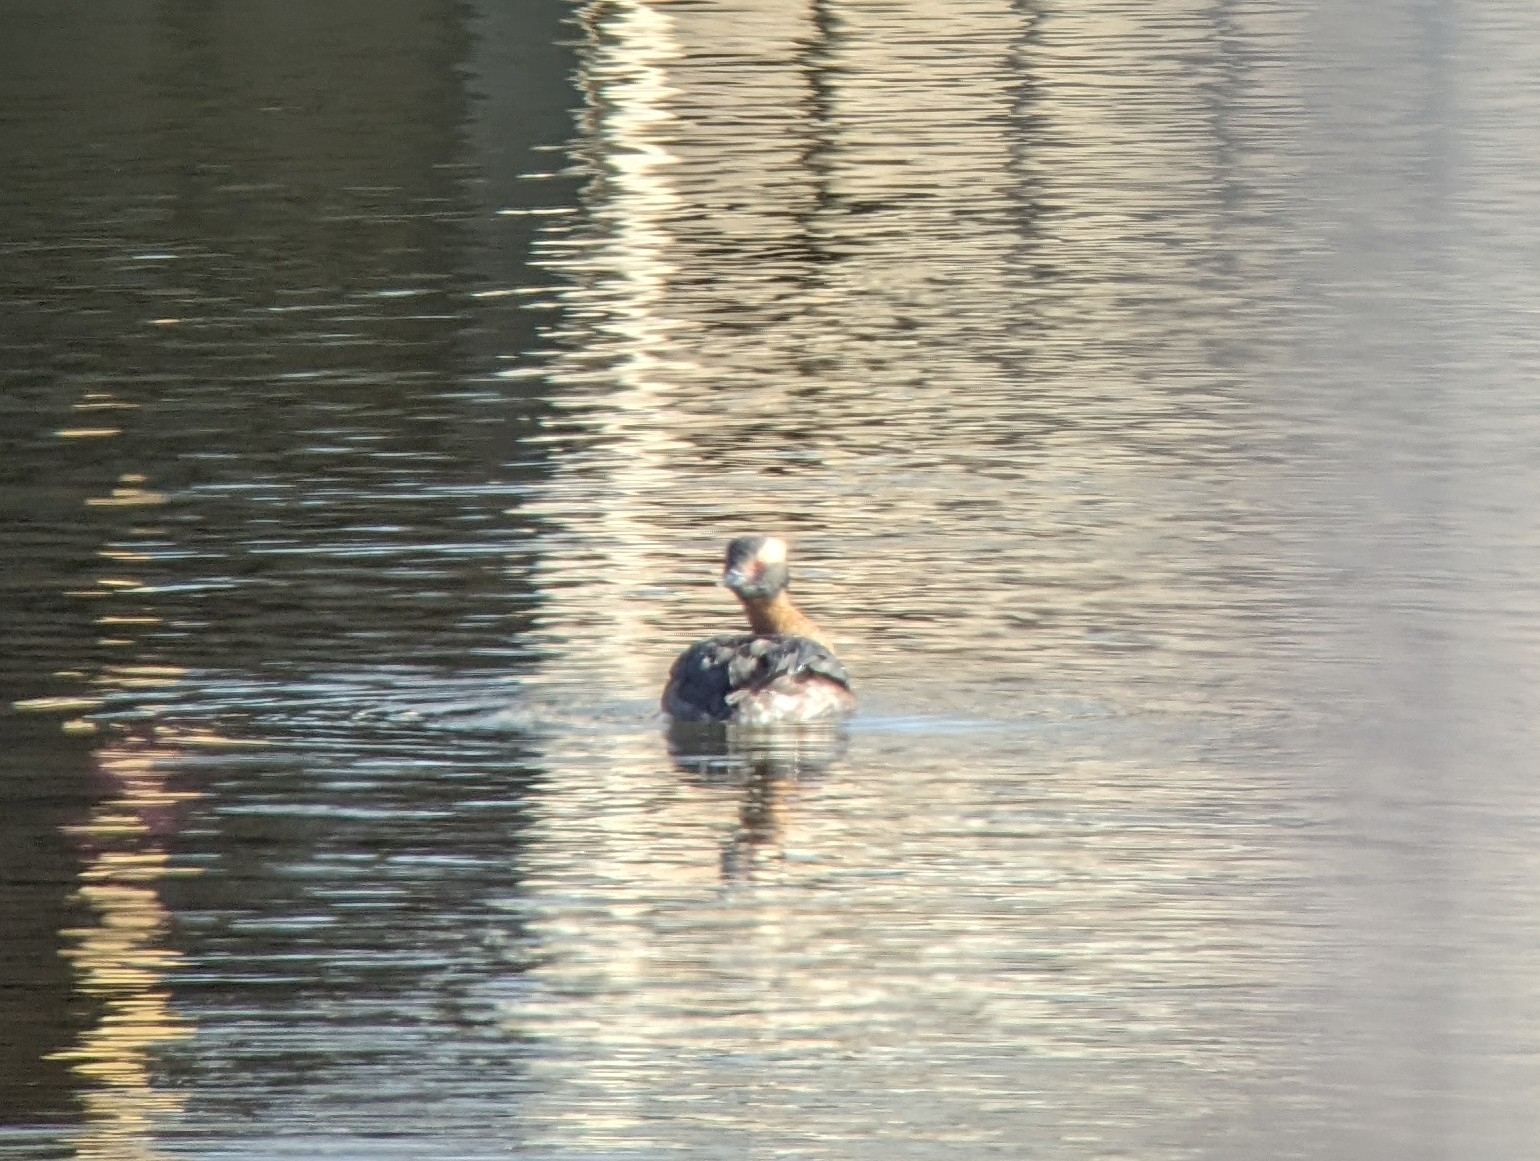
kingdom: Animalia
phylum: Chordata
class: Aves
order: Podicipediformes
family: Podicipedidae
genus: Podiceps
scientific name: Podiceps auritus
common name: Horned grebe
